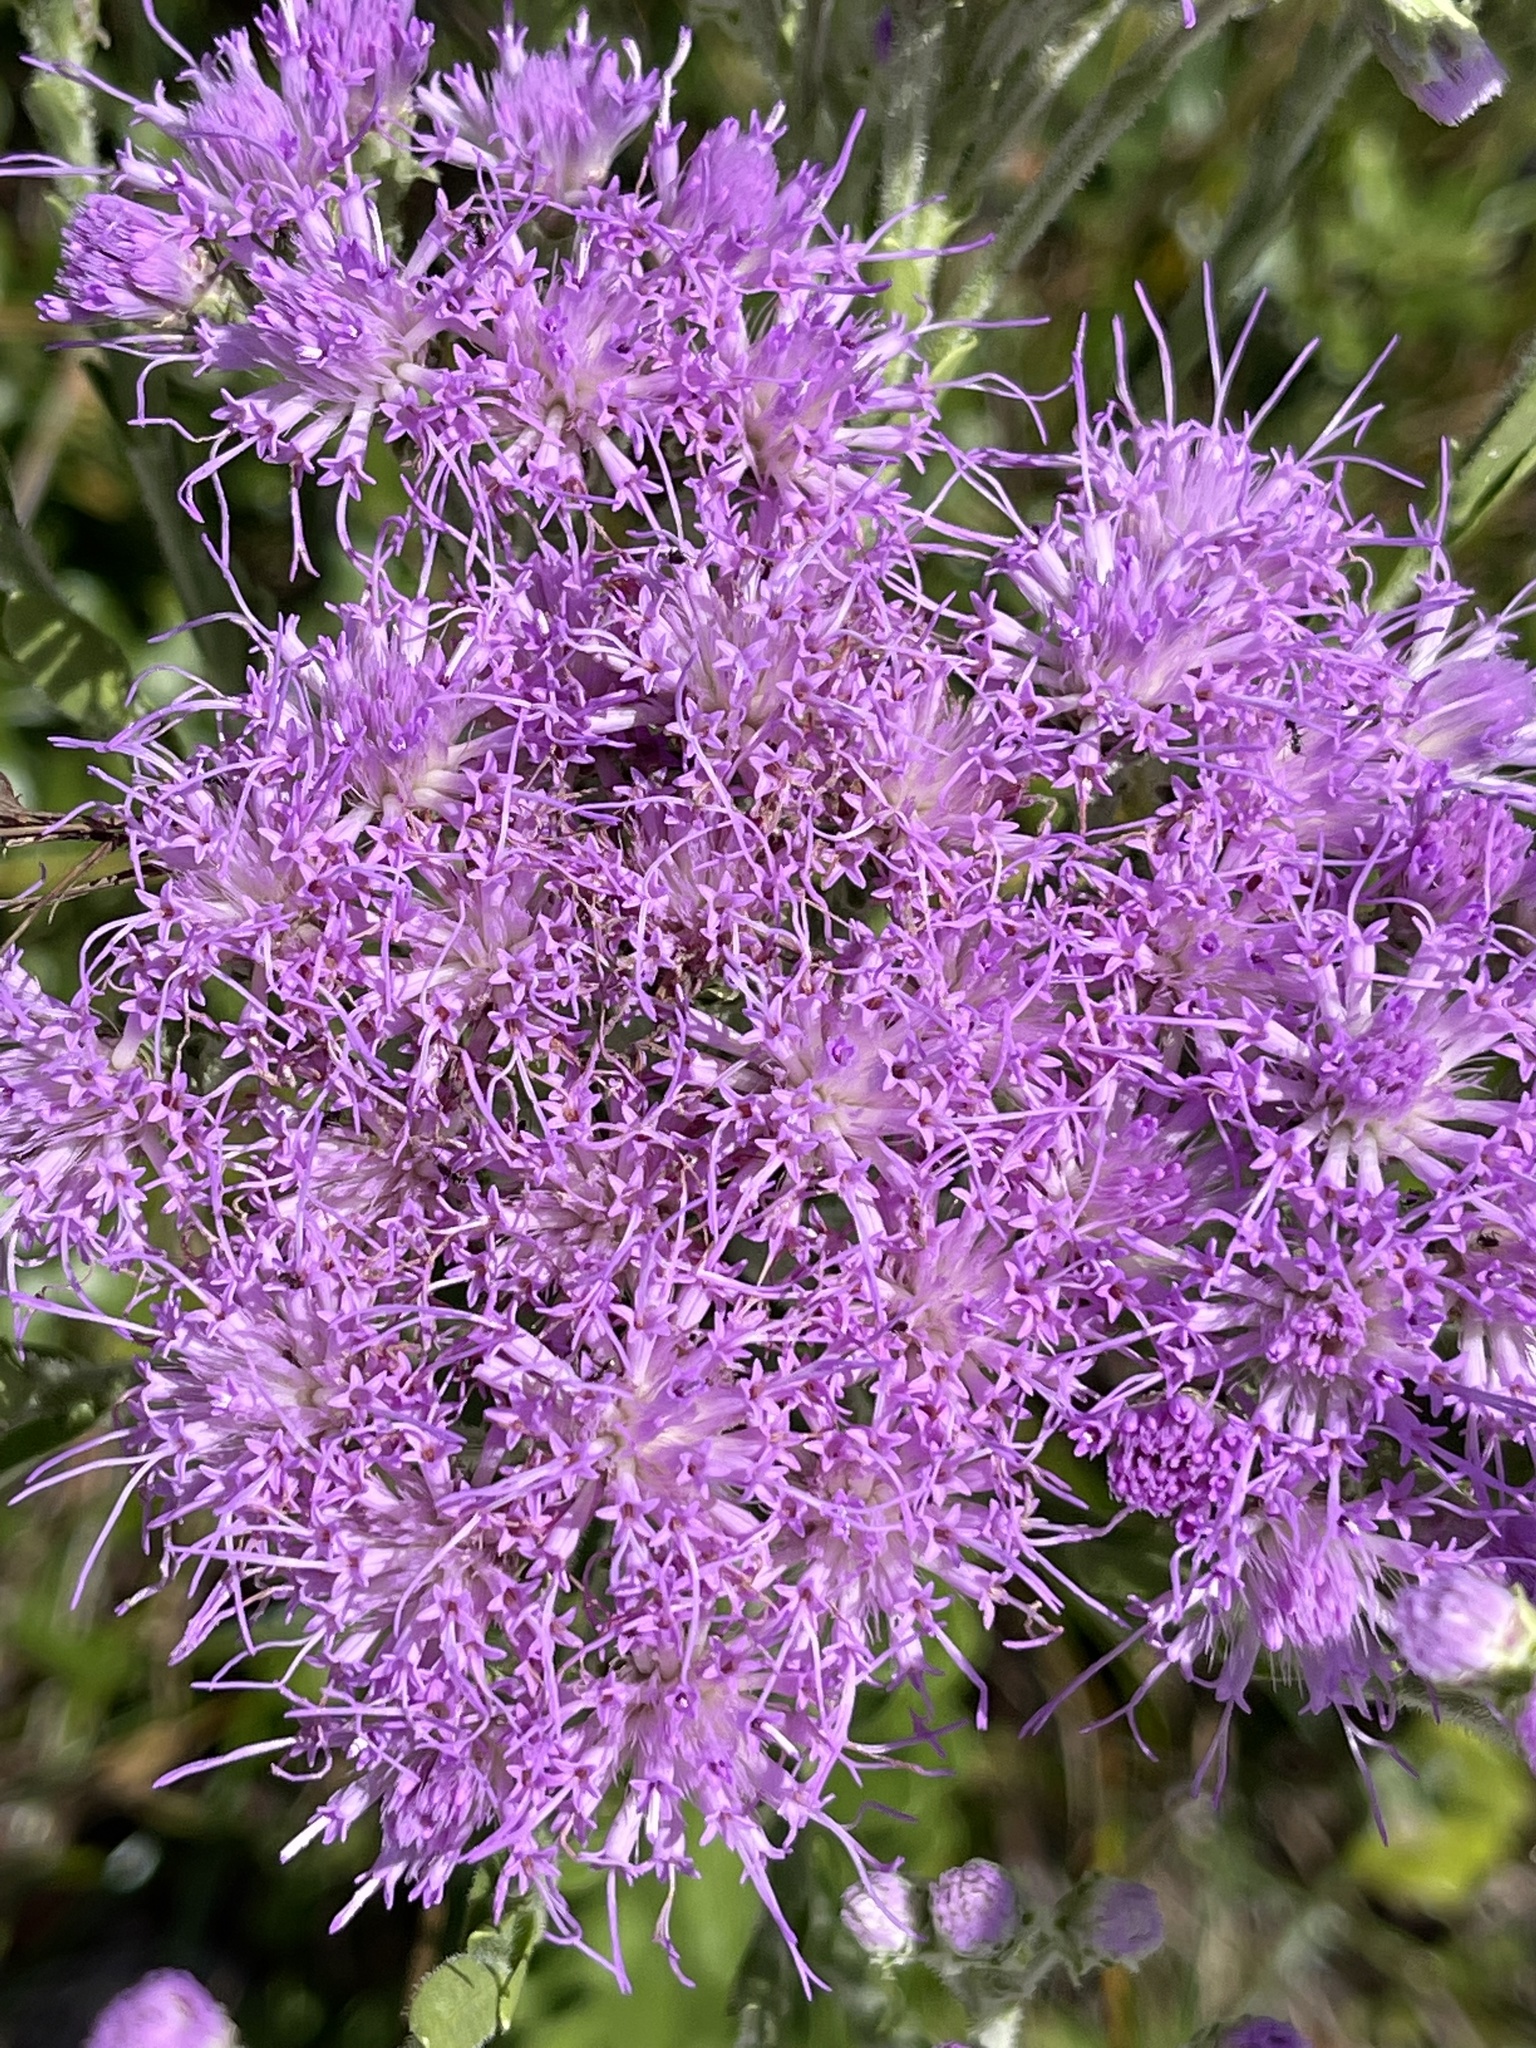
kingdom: Plantae
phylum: Tracheophyta
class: Magnoliopsida
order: Asterales
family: Asteraceae
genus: Carphephorus
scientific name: Carphephorus corymbosus
